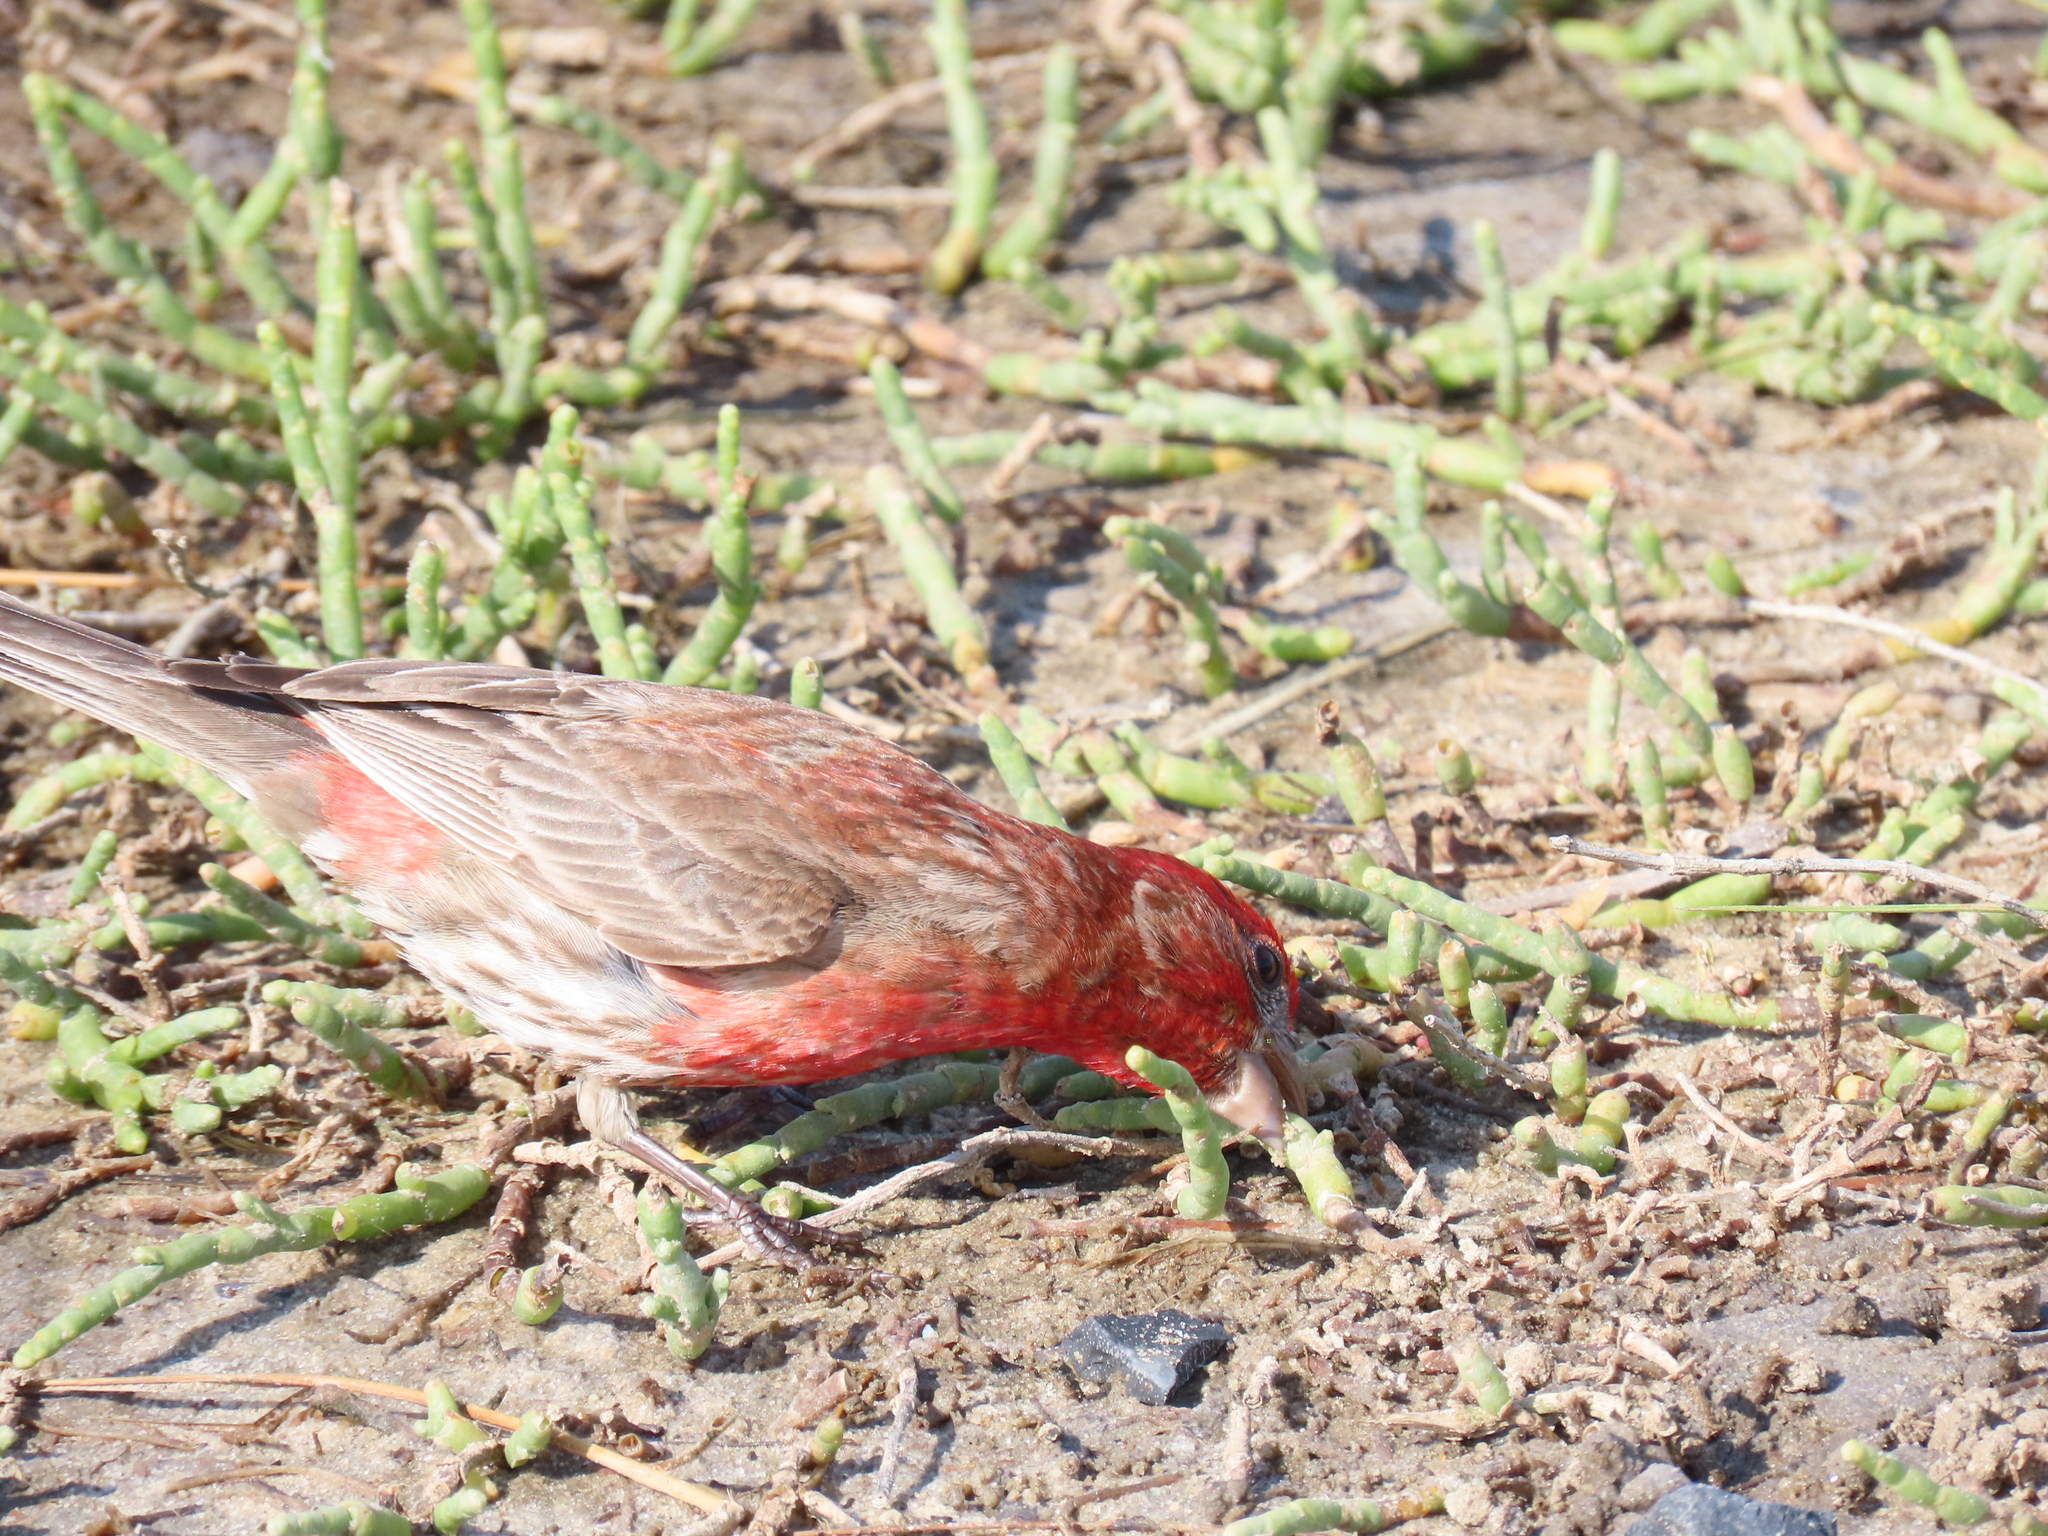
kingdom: Animalia
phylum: Chordata
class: Aves
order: Passeriformes
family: Fringillidae
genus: Haemorhous
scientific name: Haemorhous mexicanus
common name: House finch
